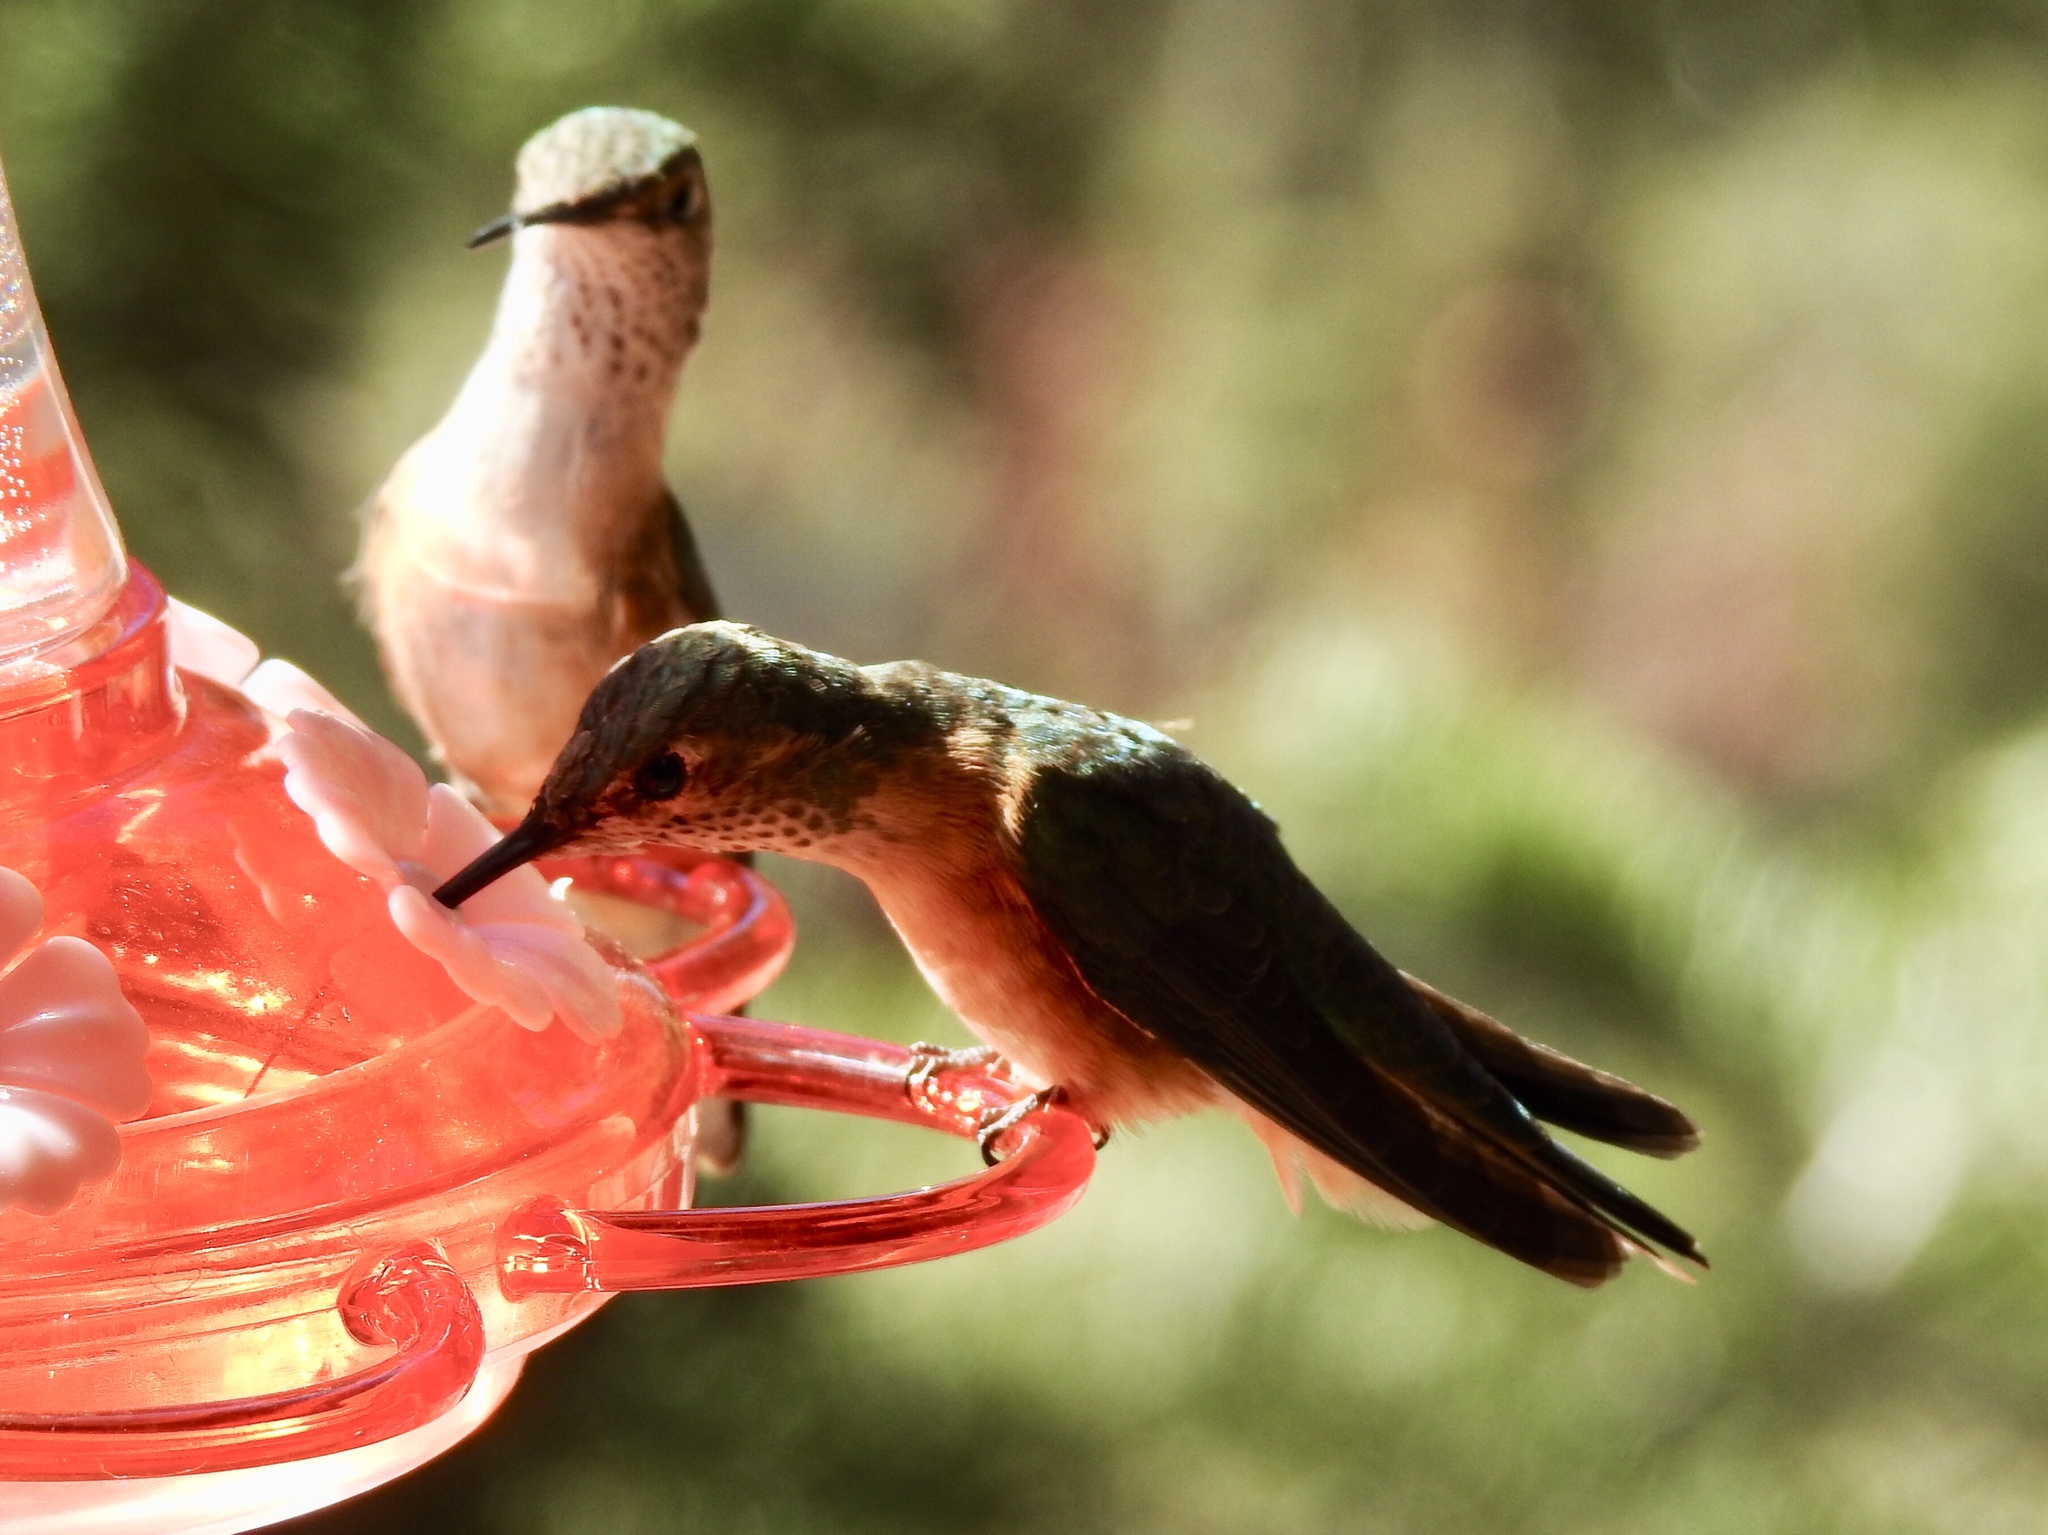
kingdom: Animalia
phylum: Chordata
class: Aves
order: Apodiformes
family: Trochilidae
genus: Selasphorus
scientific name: Selasphorus platycercus
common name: Broad-tailed hummingbird
